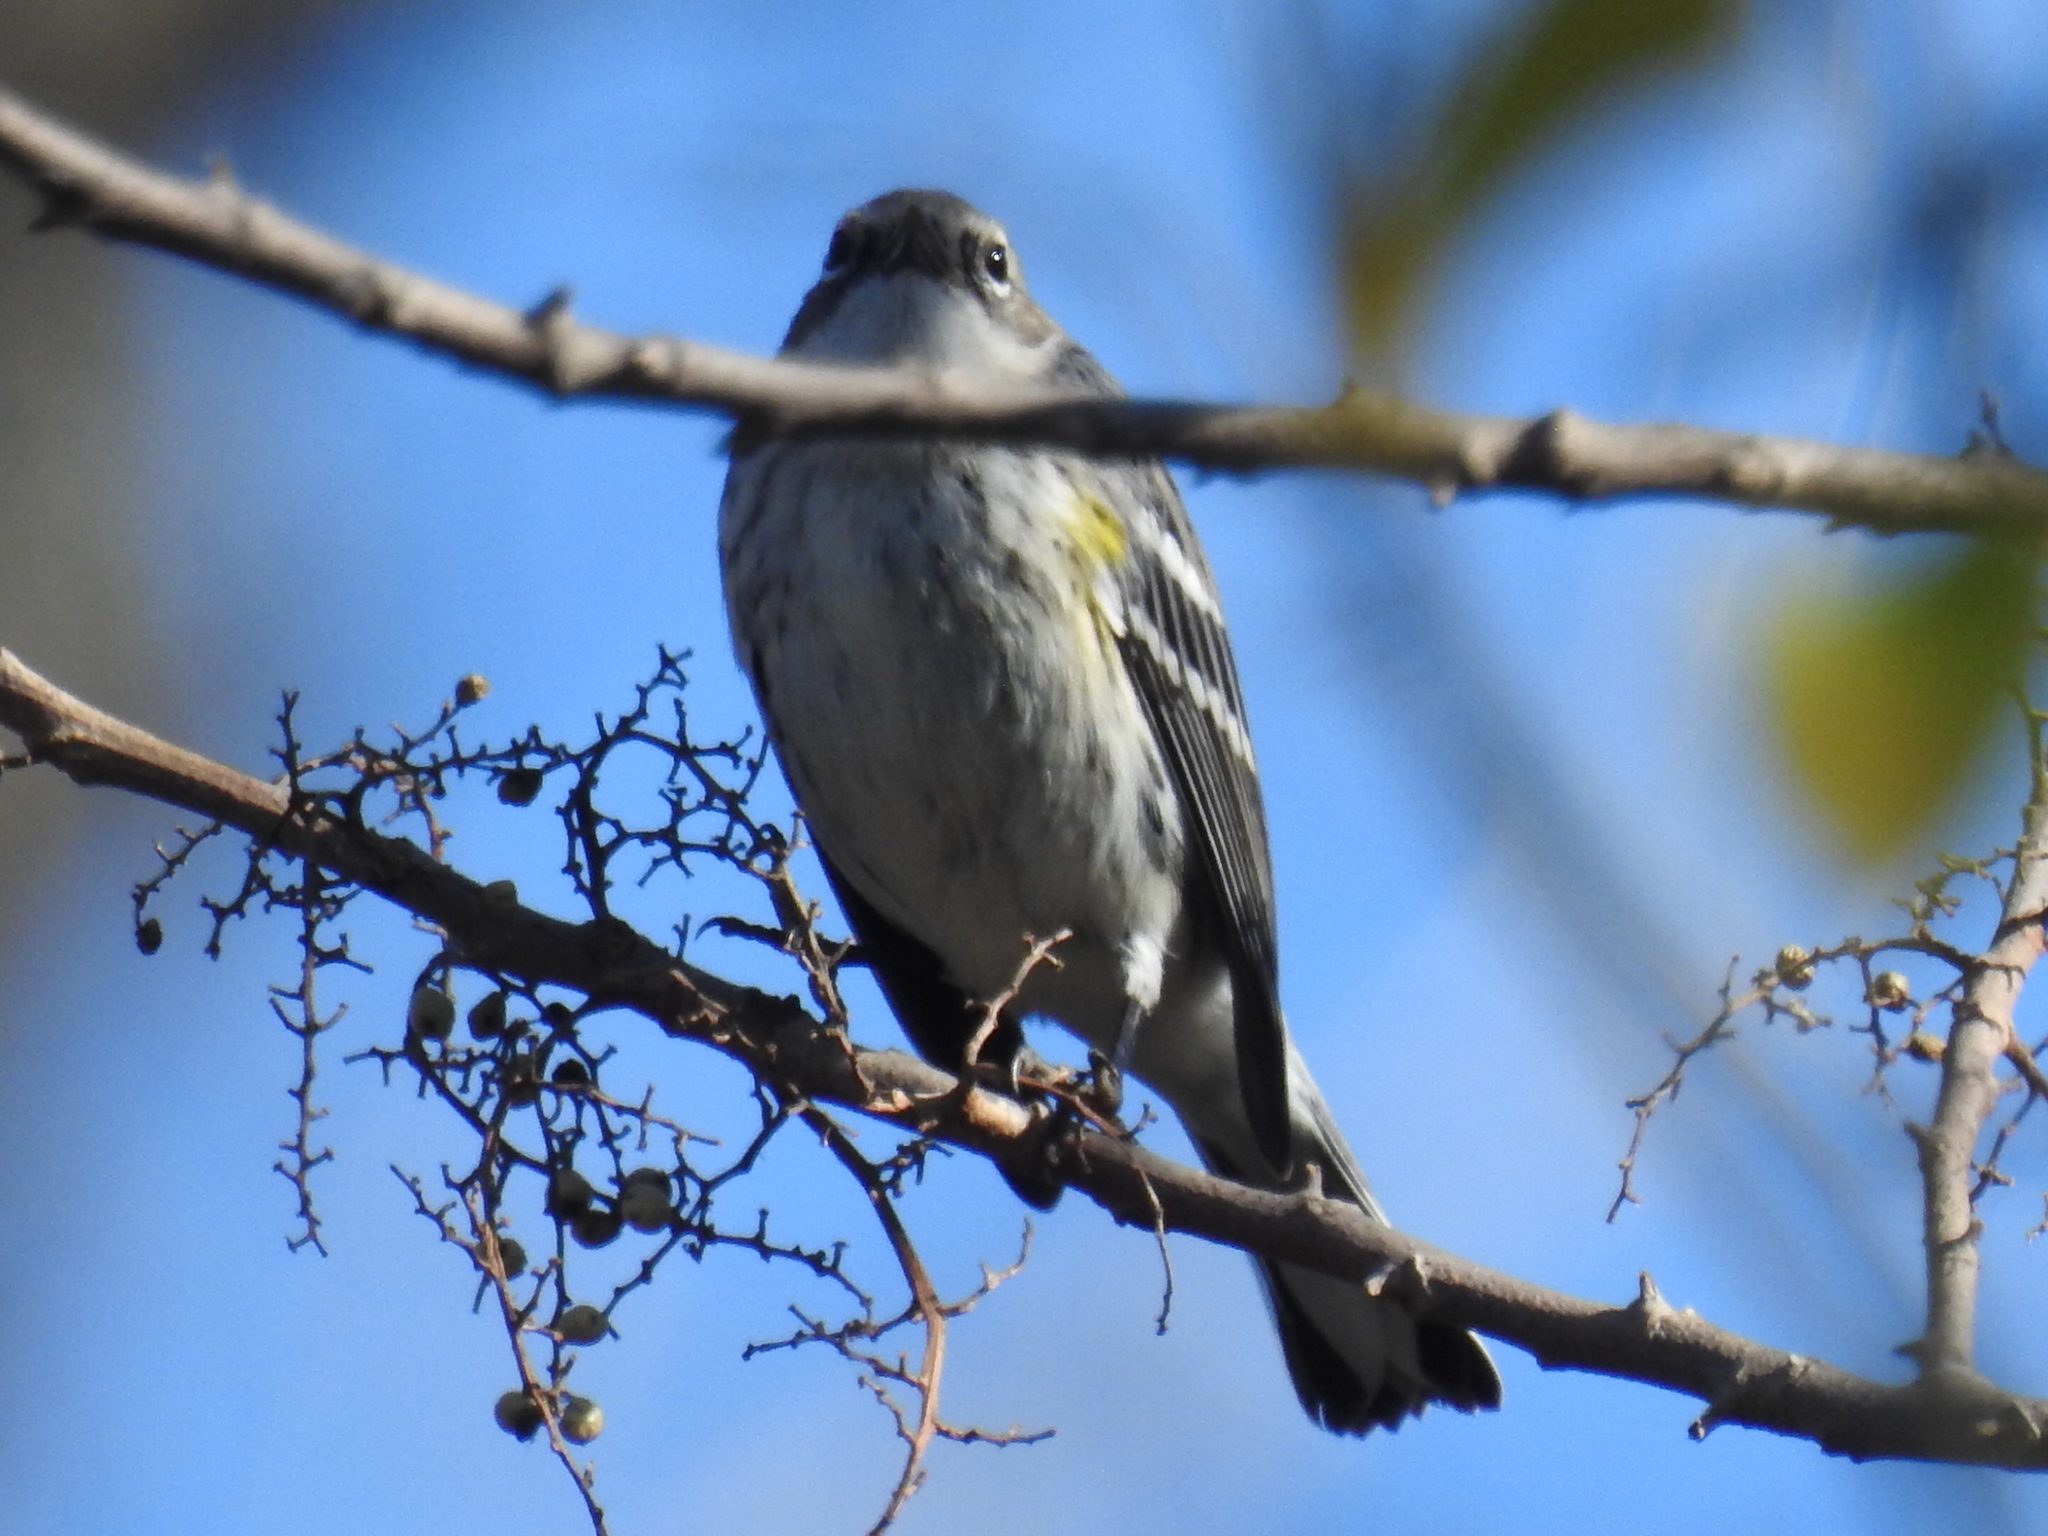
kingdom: Animalia
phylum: Chordata
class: Aves
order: Passeriformes
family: Parulidae
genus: Setophaga
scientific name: Setophaga coronata
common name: Myrtle warbler
